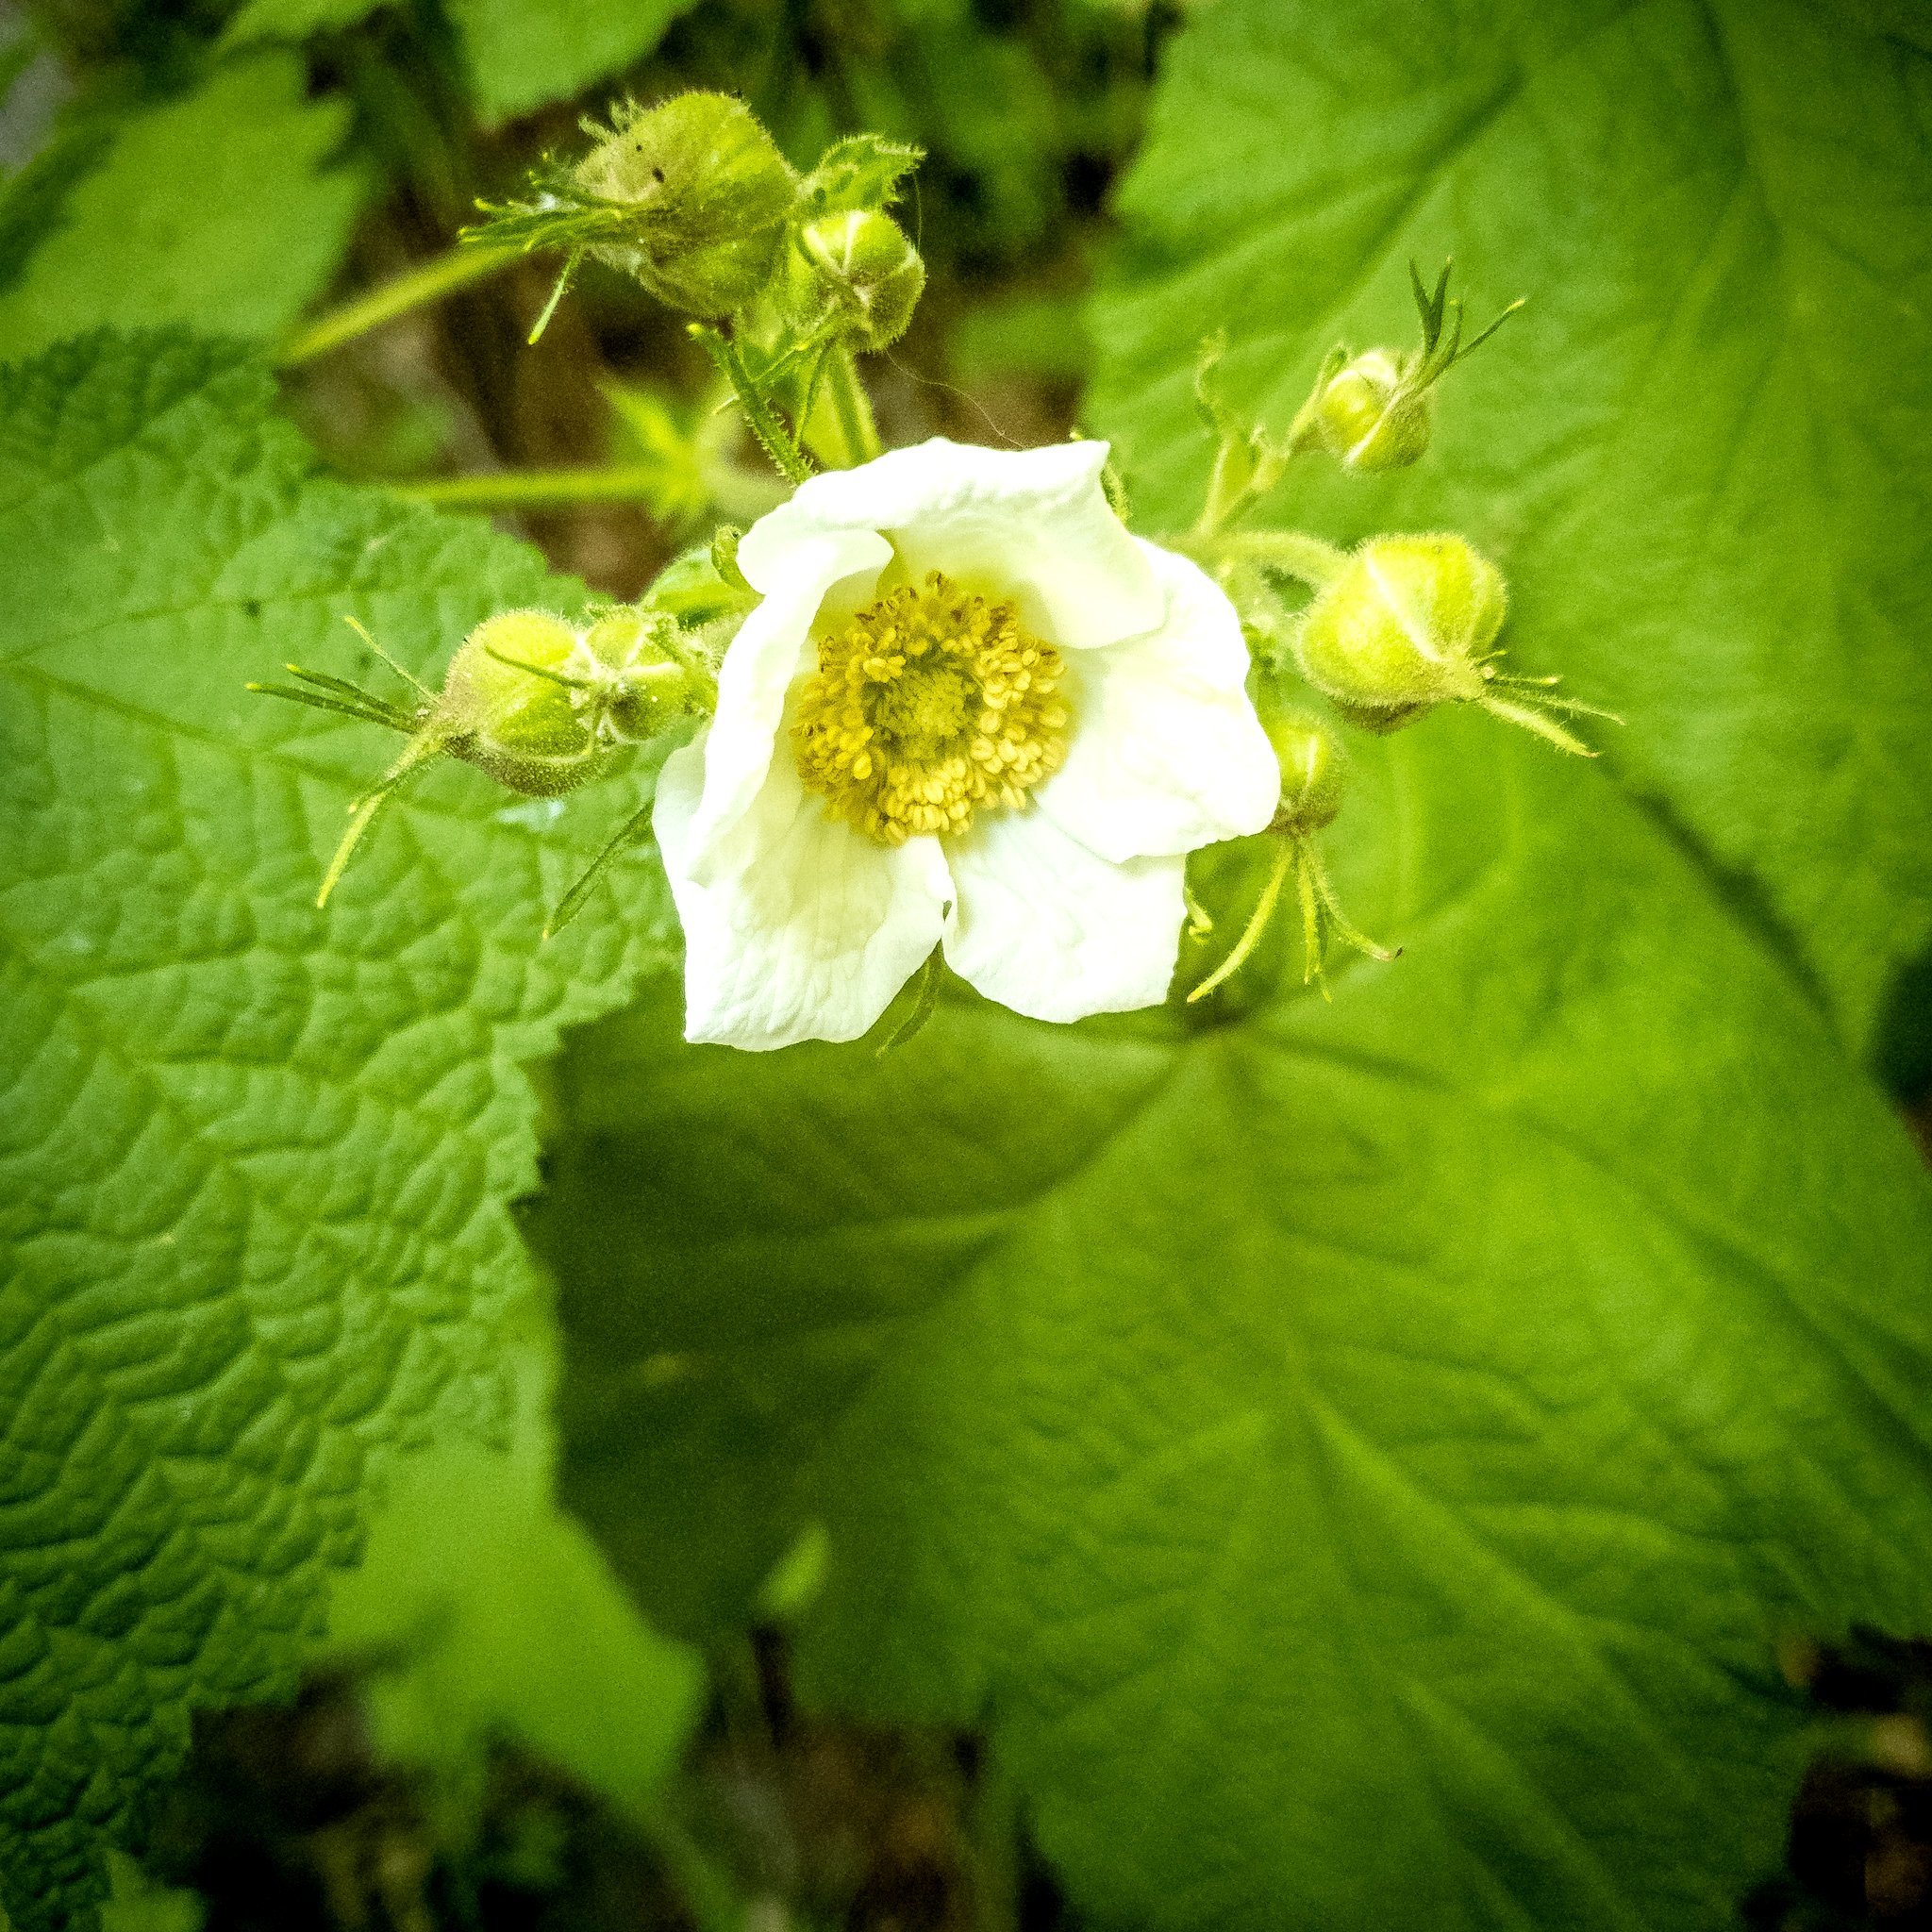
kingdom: Plantae
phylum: Tracheophyta
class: Magnoliopsida
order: Rosales
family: Rosaceae
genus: Rubus
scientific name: Rubus parviflorus
